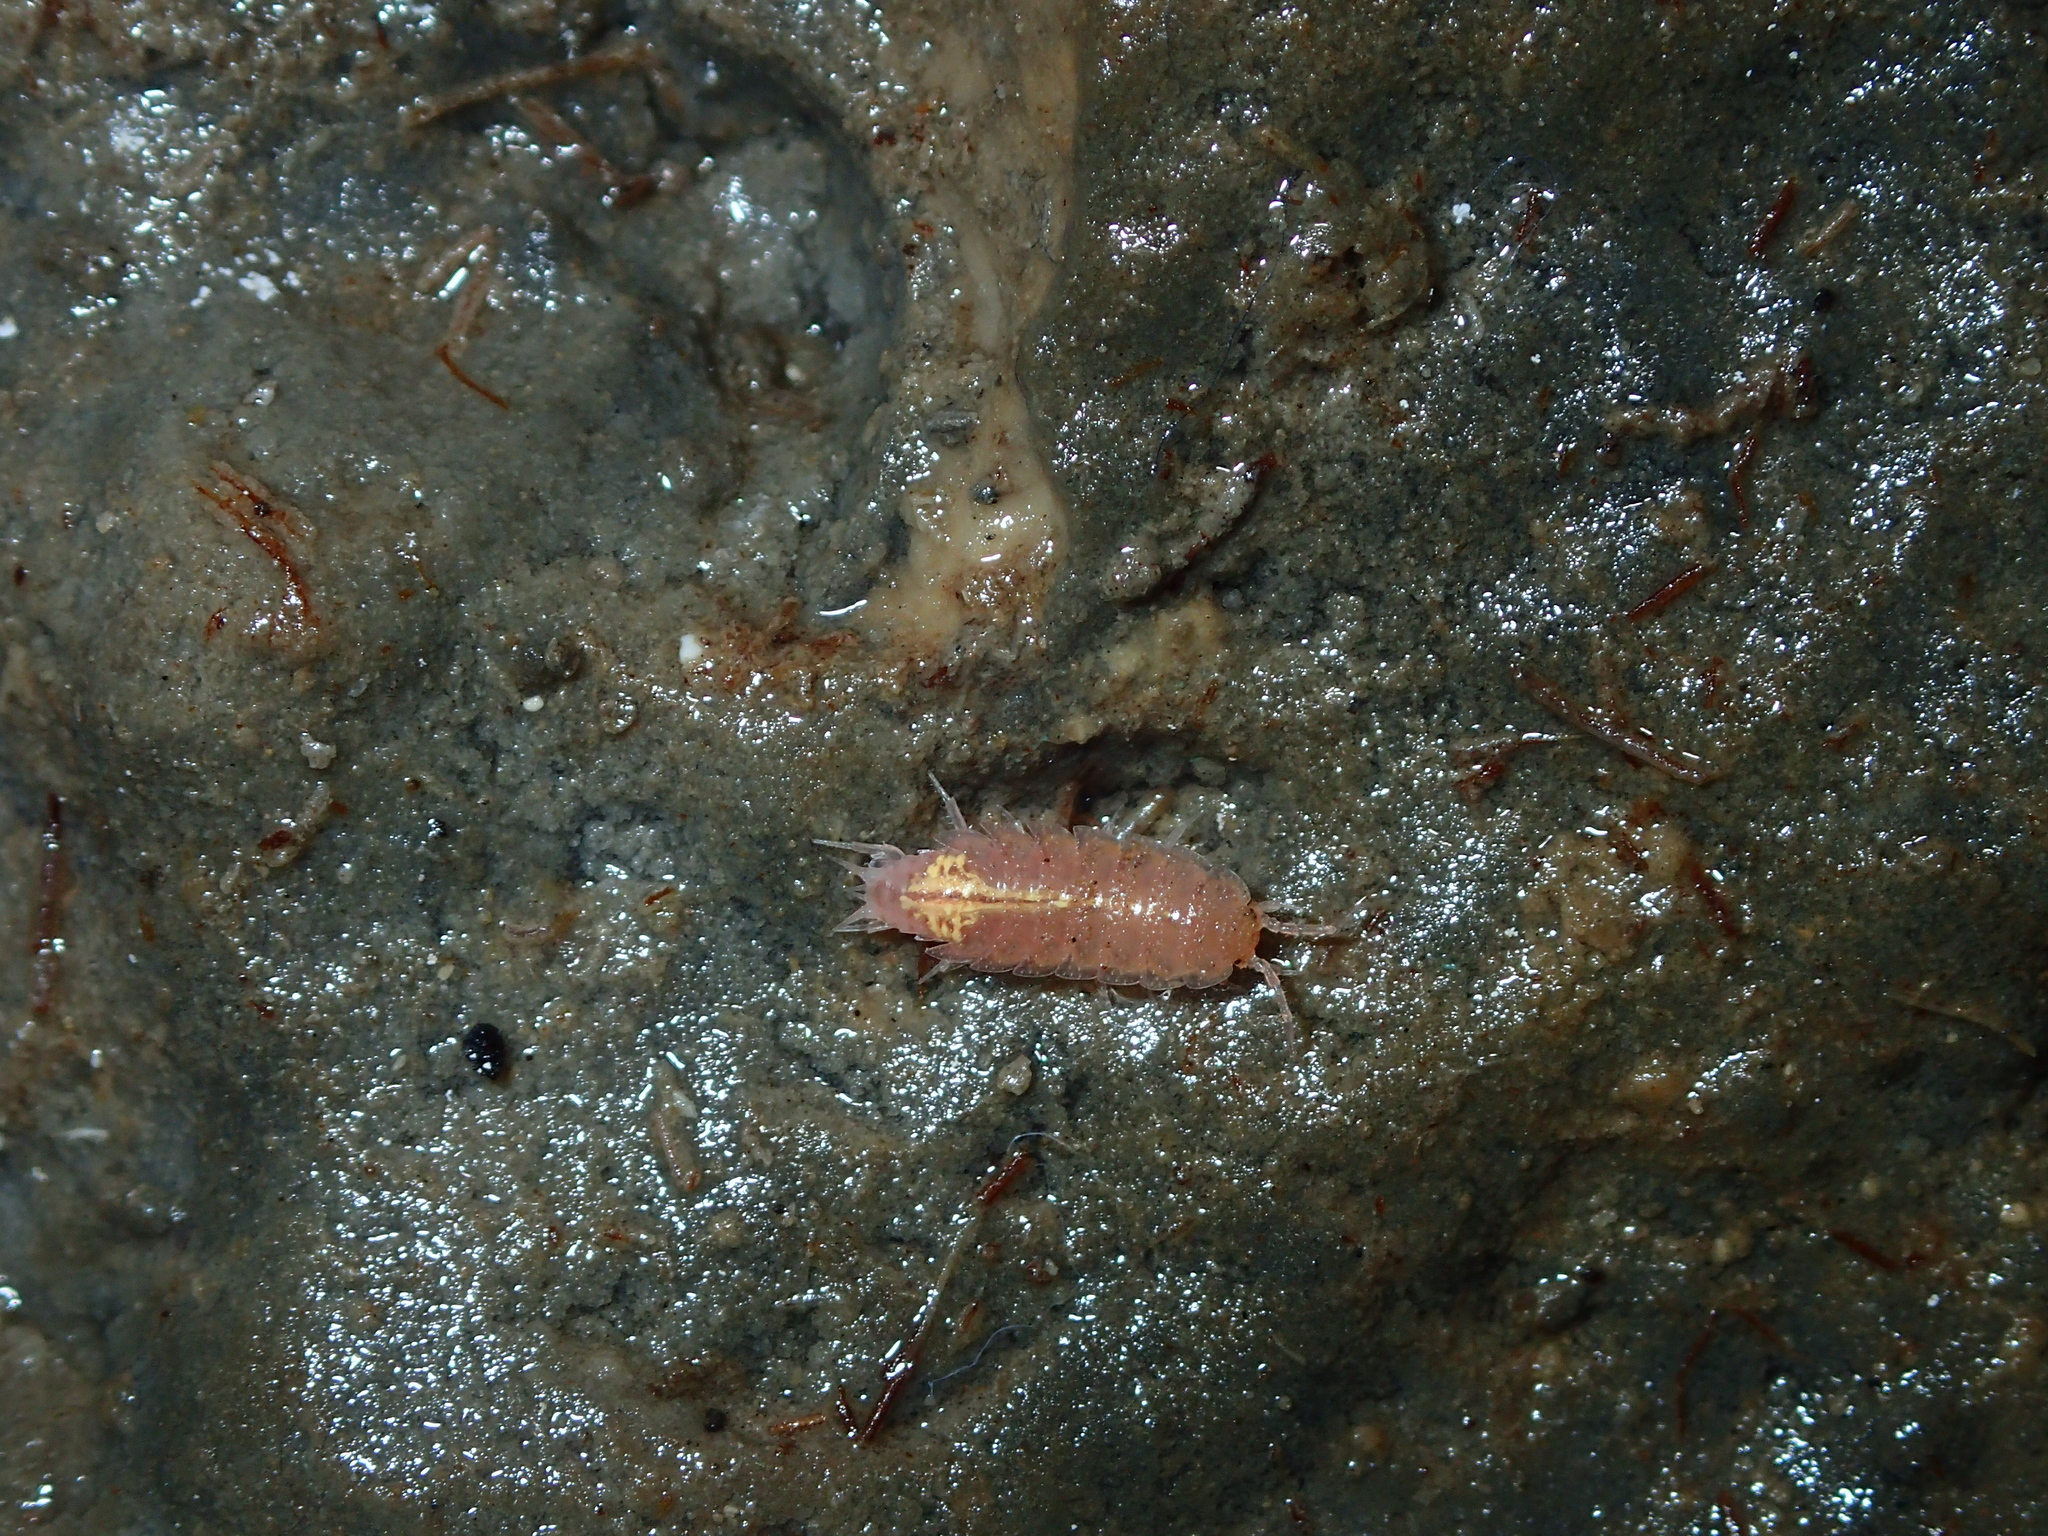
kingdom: Animalia
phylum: Arthropoda
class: Malacostraca
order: Isopoda
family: Trichoniscidae
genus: Androniscus
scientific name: Androniscus dentiger
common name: Rosy woodlouse
